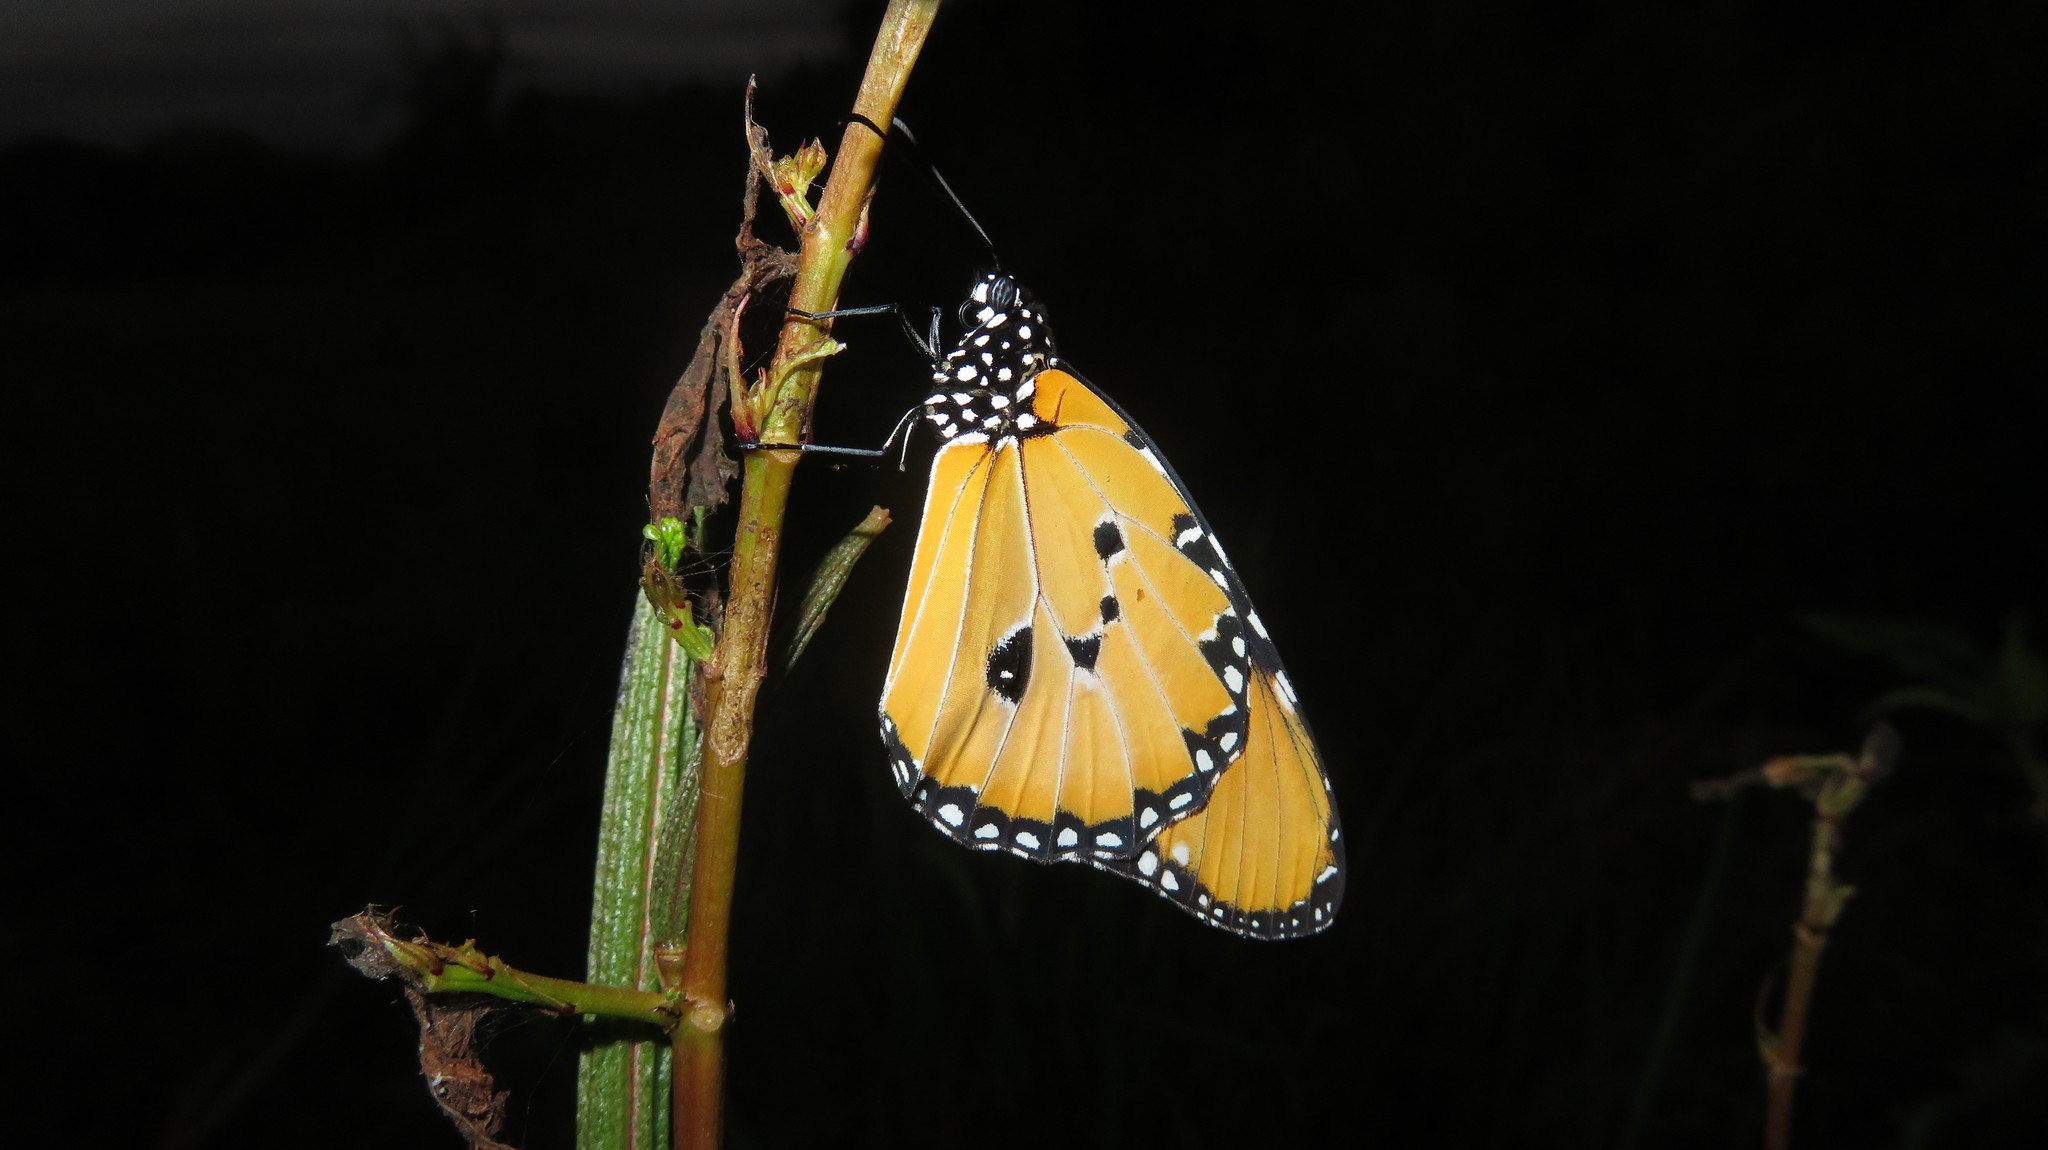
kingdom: Animalia
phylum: Arthropoda
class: Insecta
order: Lepidoptera
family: Nymphalidae
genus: Danaus
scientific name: Danaus chrysippus
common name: Plain tiger
